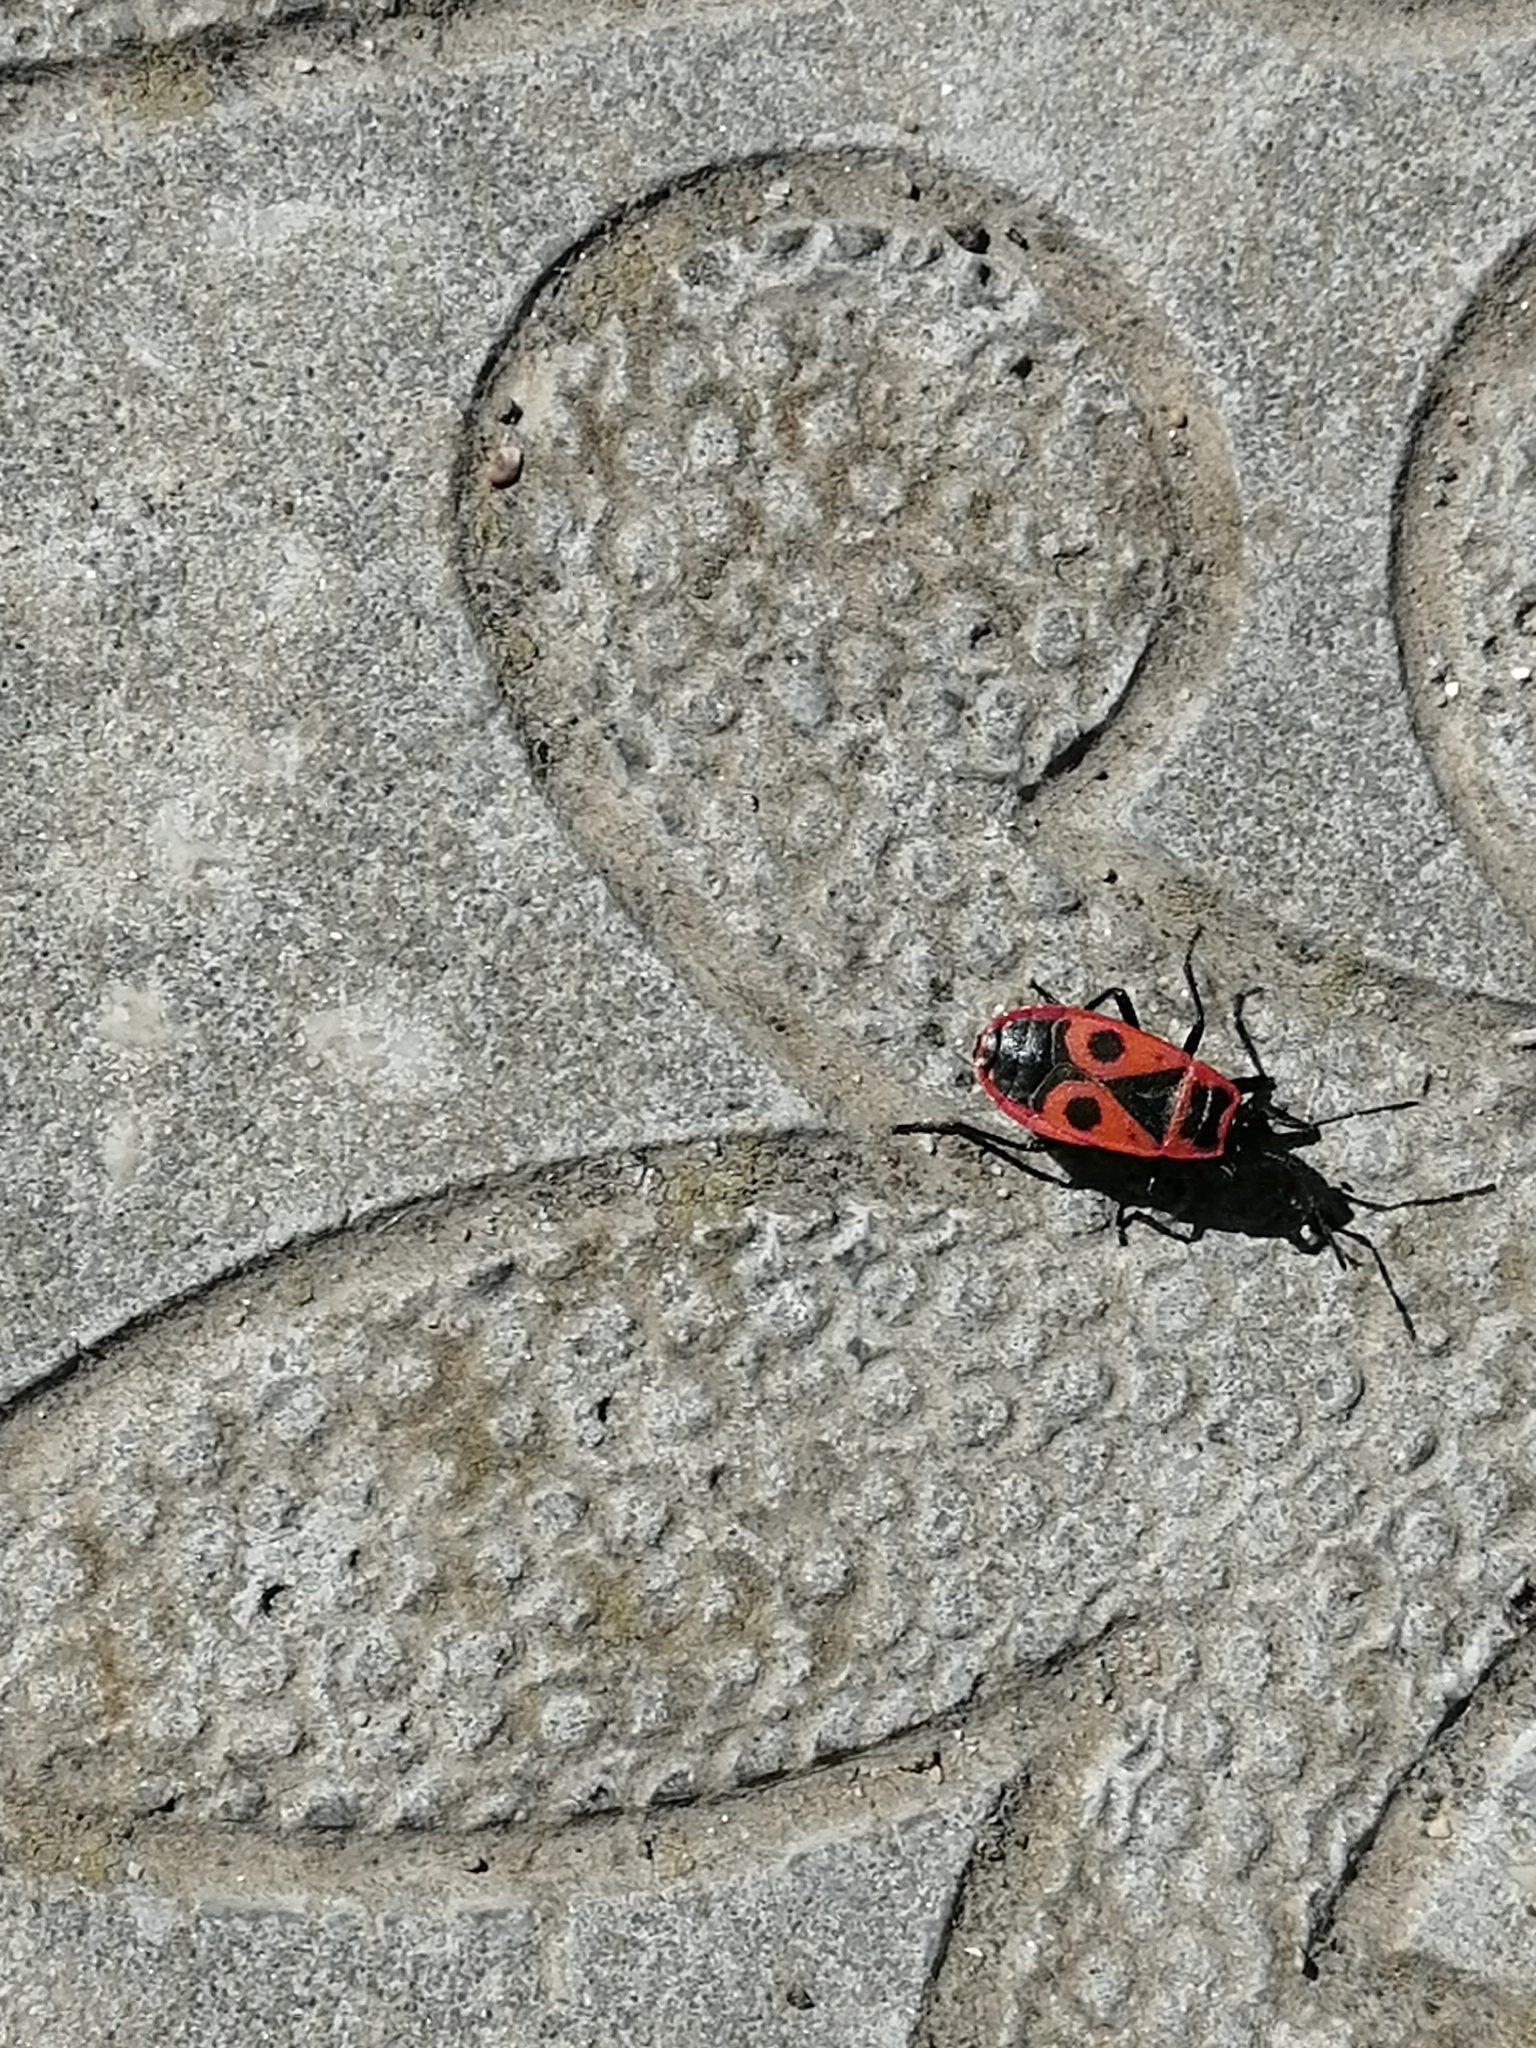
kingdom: Animalia
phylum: Arthropoda
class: Insecta
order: Hemiptera
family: Pyrrhocoridae
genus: Pyrrhocoris
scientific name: Pyrrhocoris apterus
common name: Firebug
